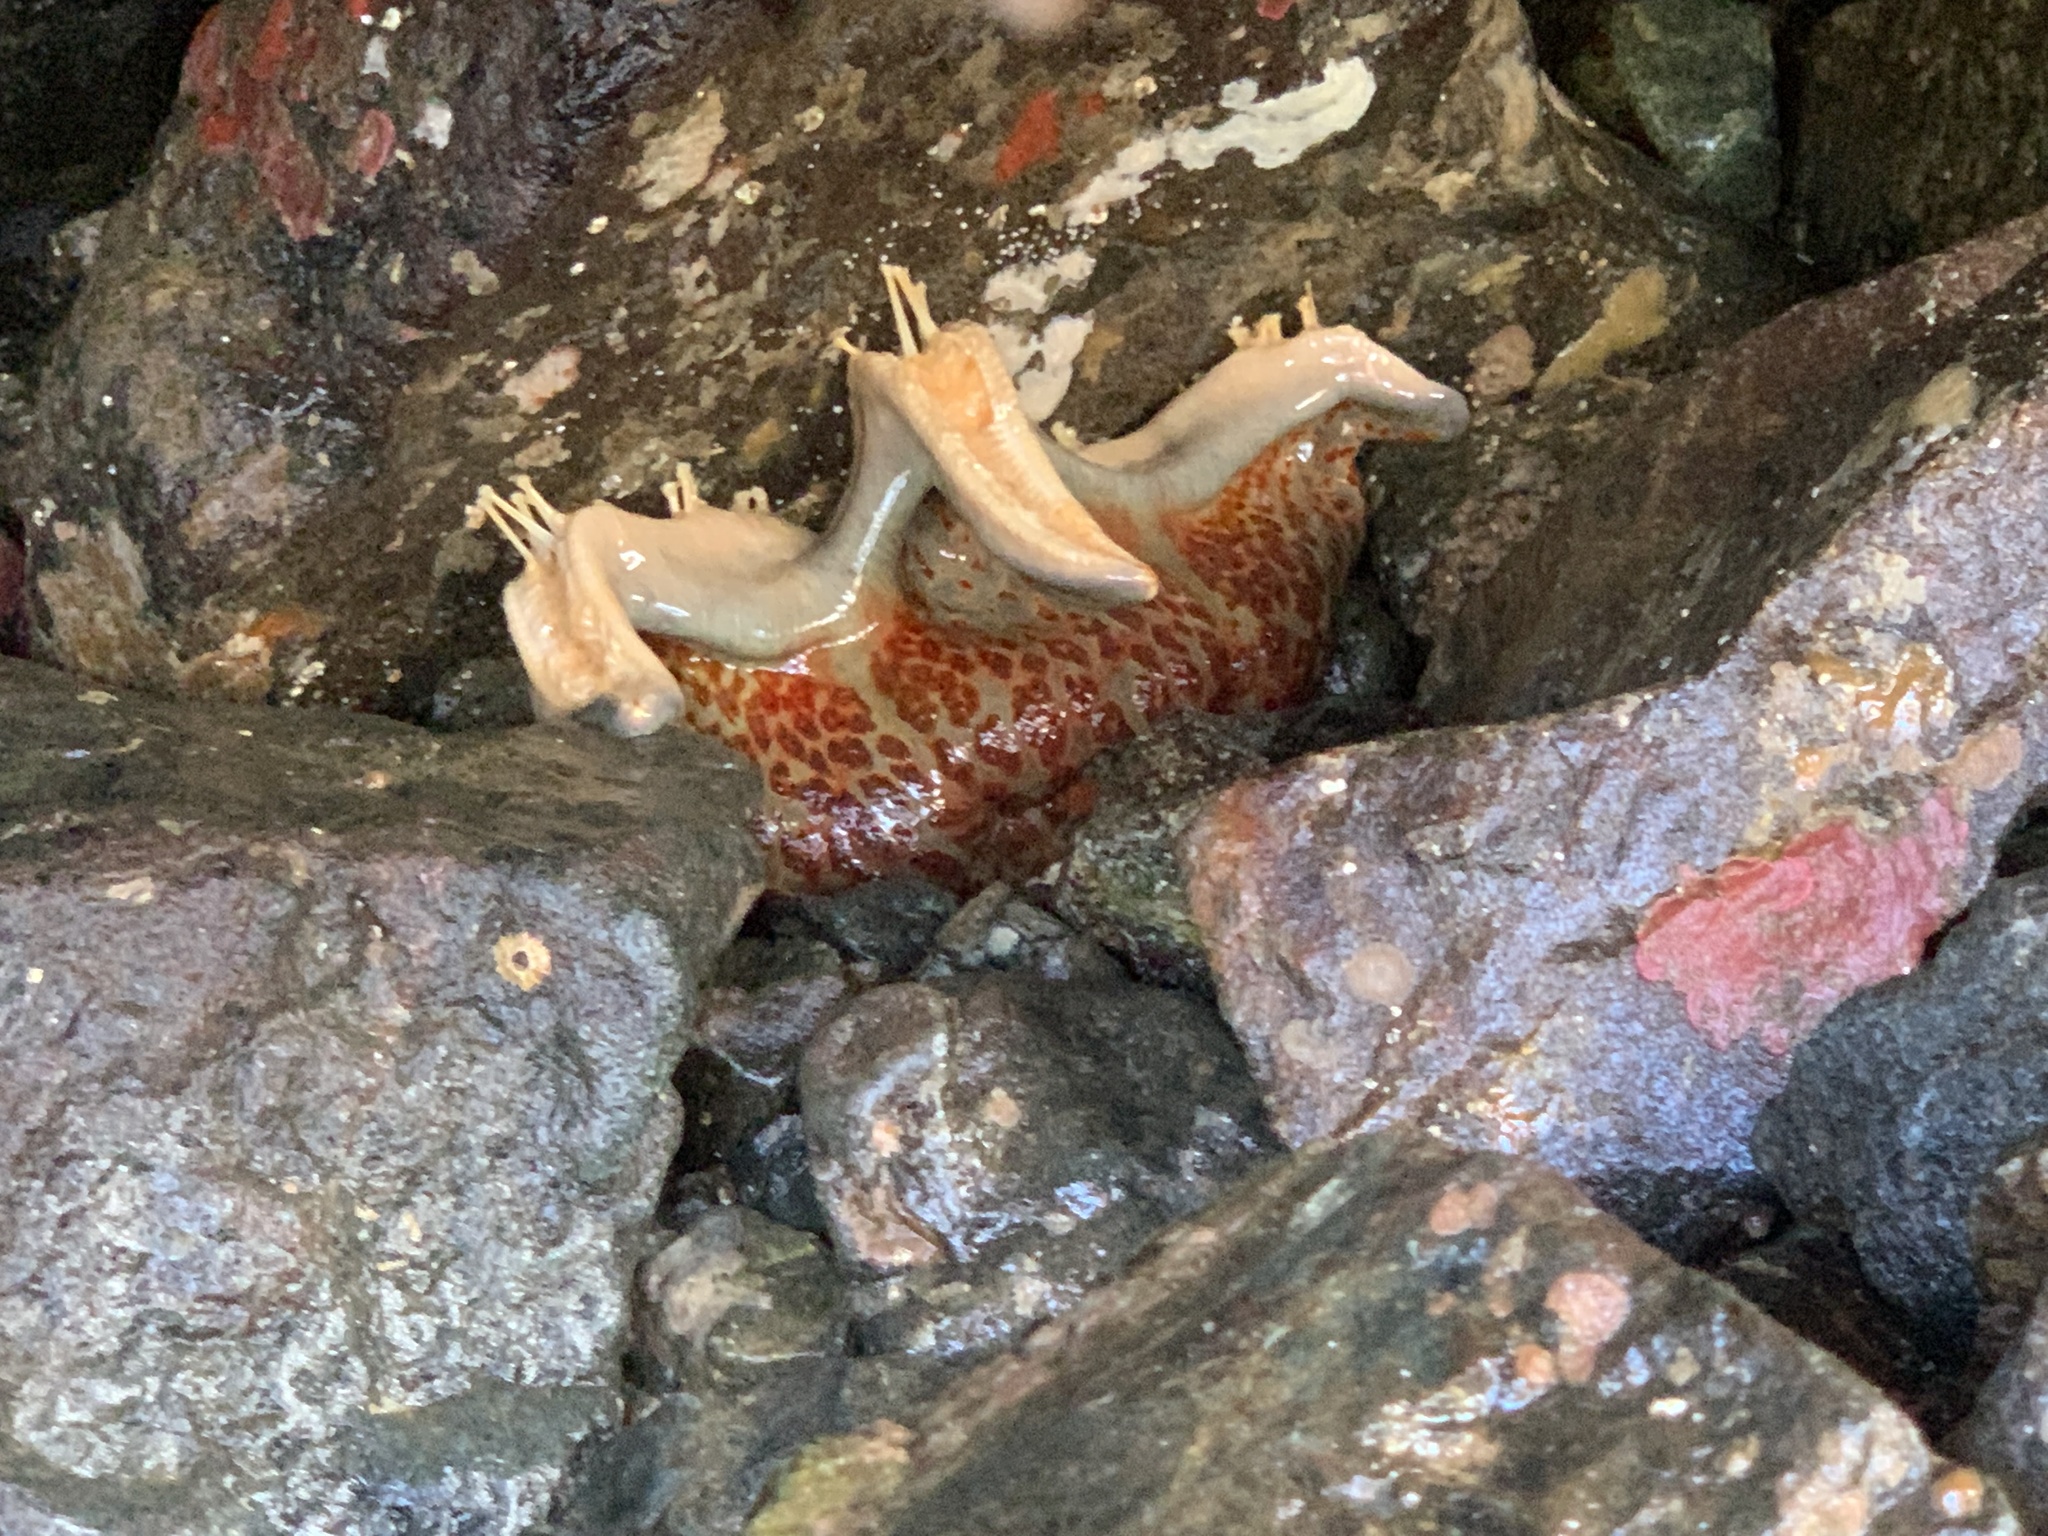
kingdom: Animalia
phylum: Echinodermata
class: Asteroidea
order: Valvatida
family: Asteropseidae
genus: Dermasterias
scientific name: Dermasterias imbricata
